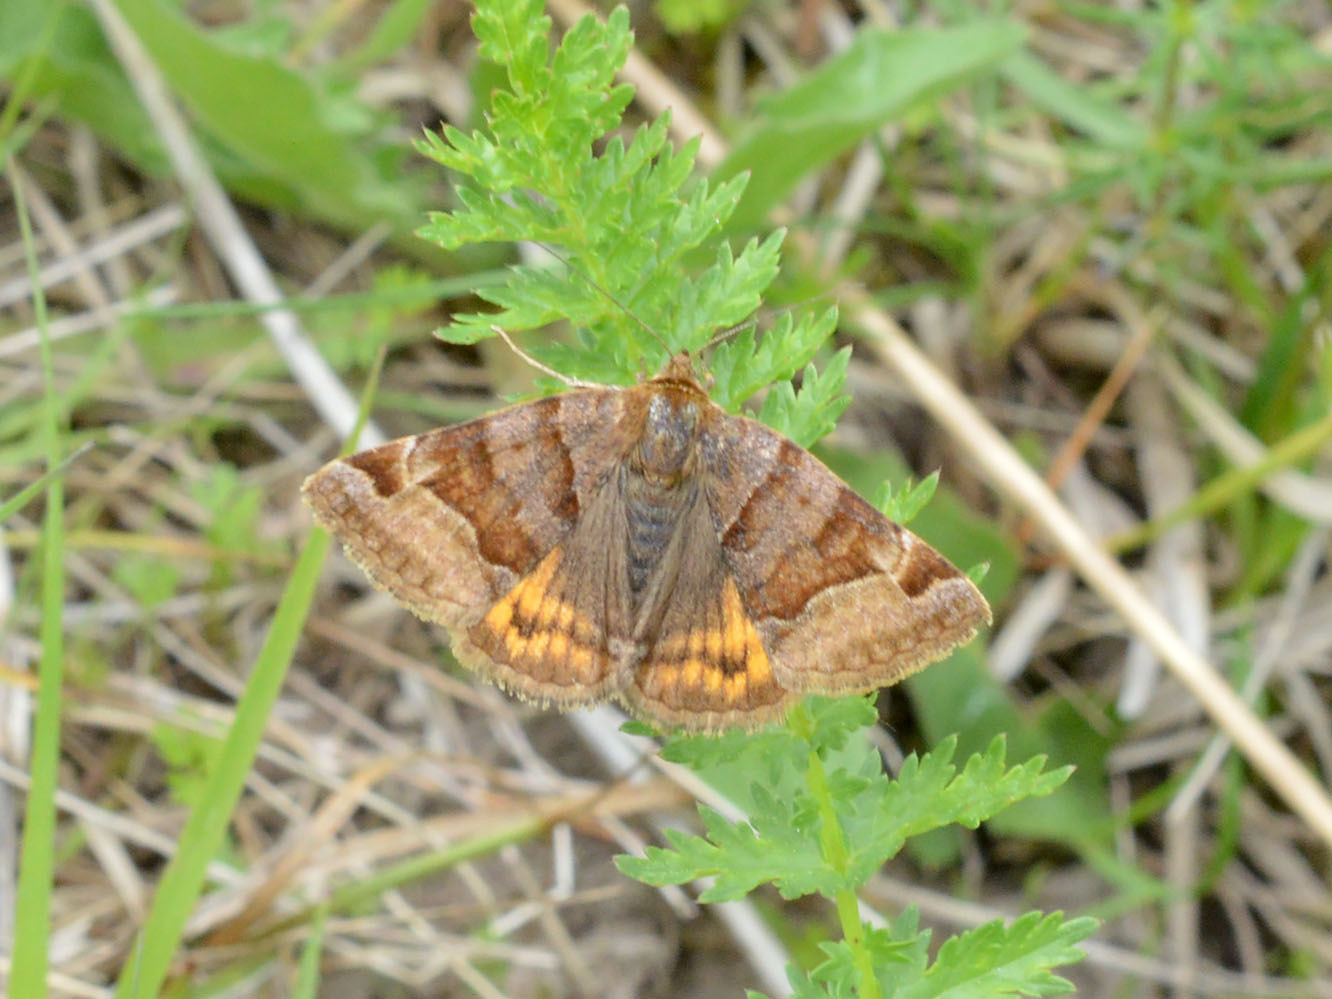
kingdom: Animalia
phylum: Arthropoda
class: Insecta
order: Lepidoptera
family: Erebidae
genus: Euclidia
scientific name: Euclidia glyphica
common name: Burnet companion
